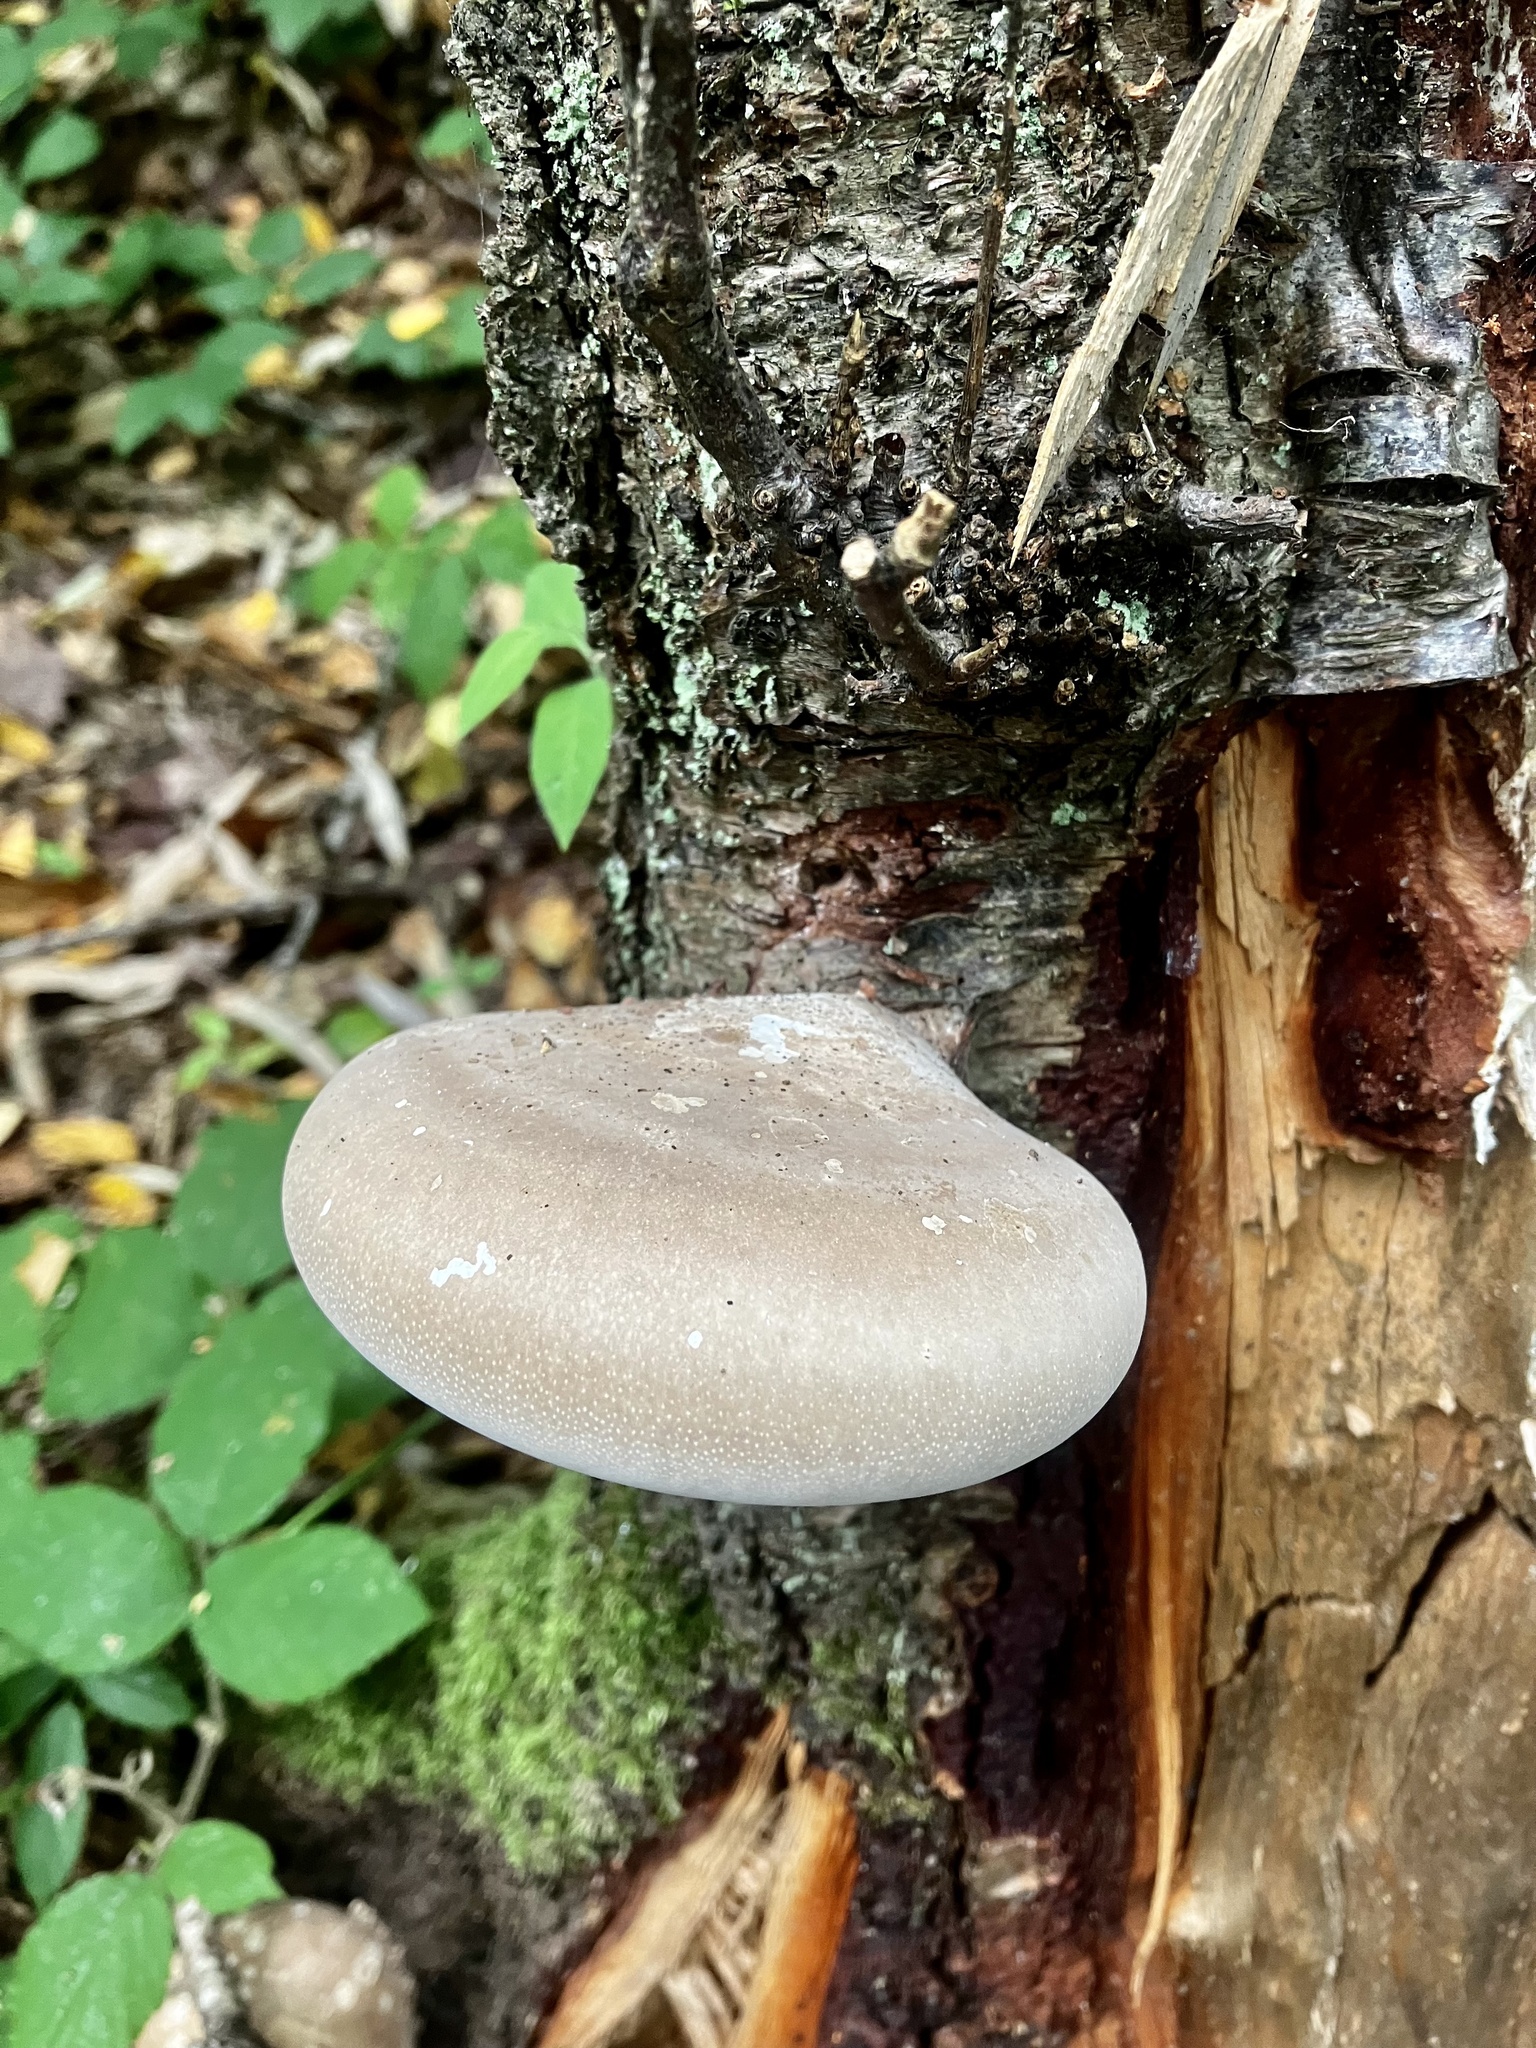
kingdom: Fungi
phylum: Basidiomycota
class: Agaricomycetes
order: Polyporales
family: Fomitopsidaceae
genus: Fomitopsis
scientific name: Fomitopsis betulina
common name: Birch polypore
